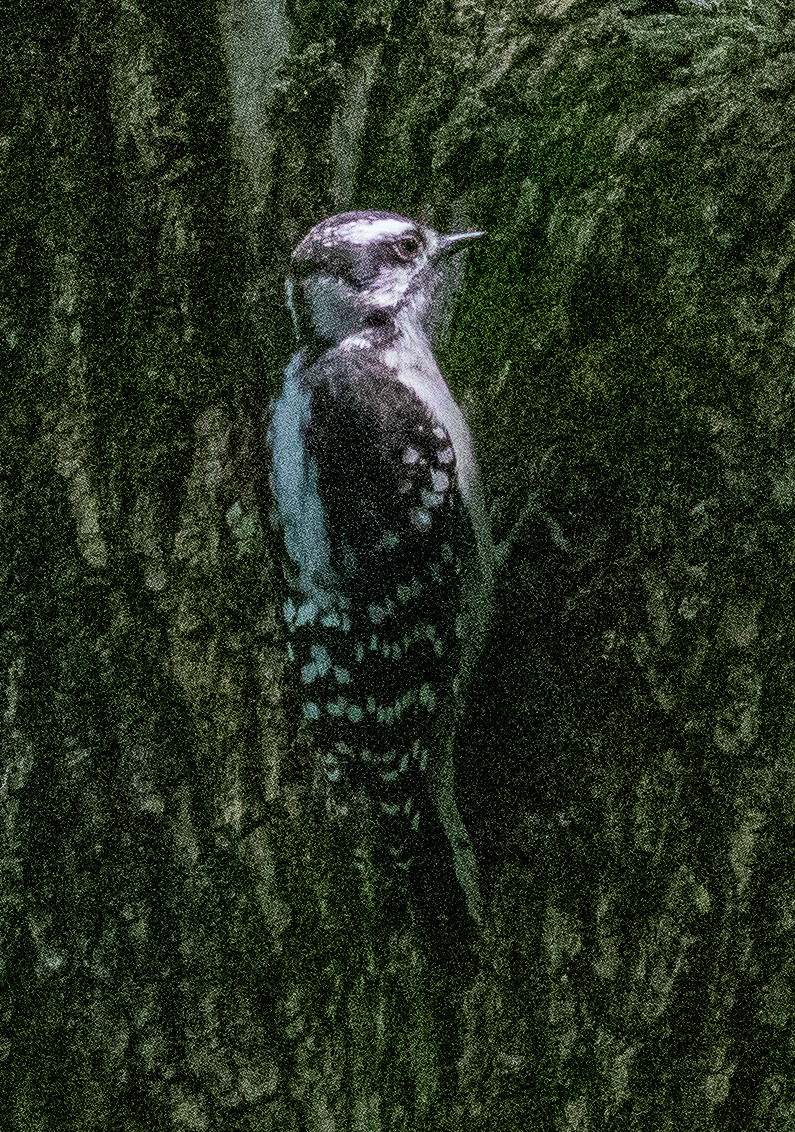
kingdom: Animalia
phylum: Chordata
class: Aves
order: Piciformes
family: Picidae
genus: Dryobates
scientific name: Dryobates pubescens
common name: Downy woodpecker
